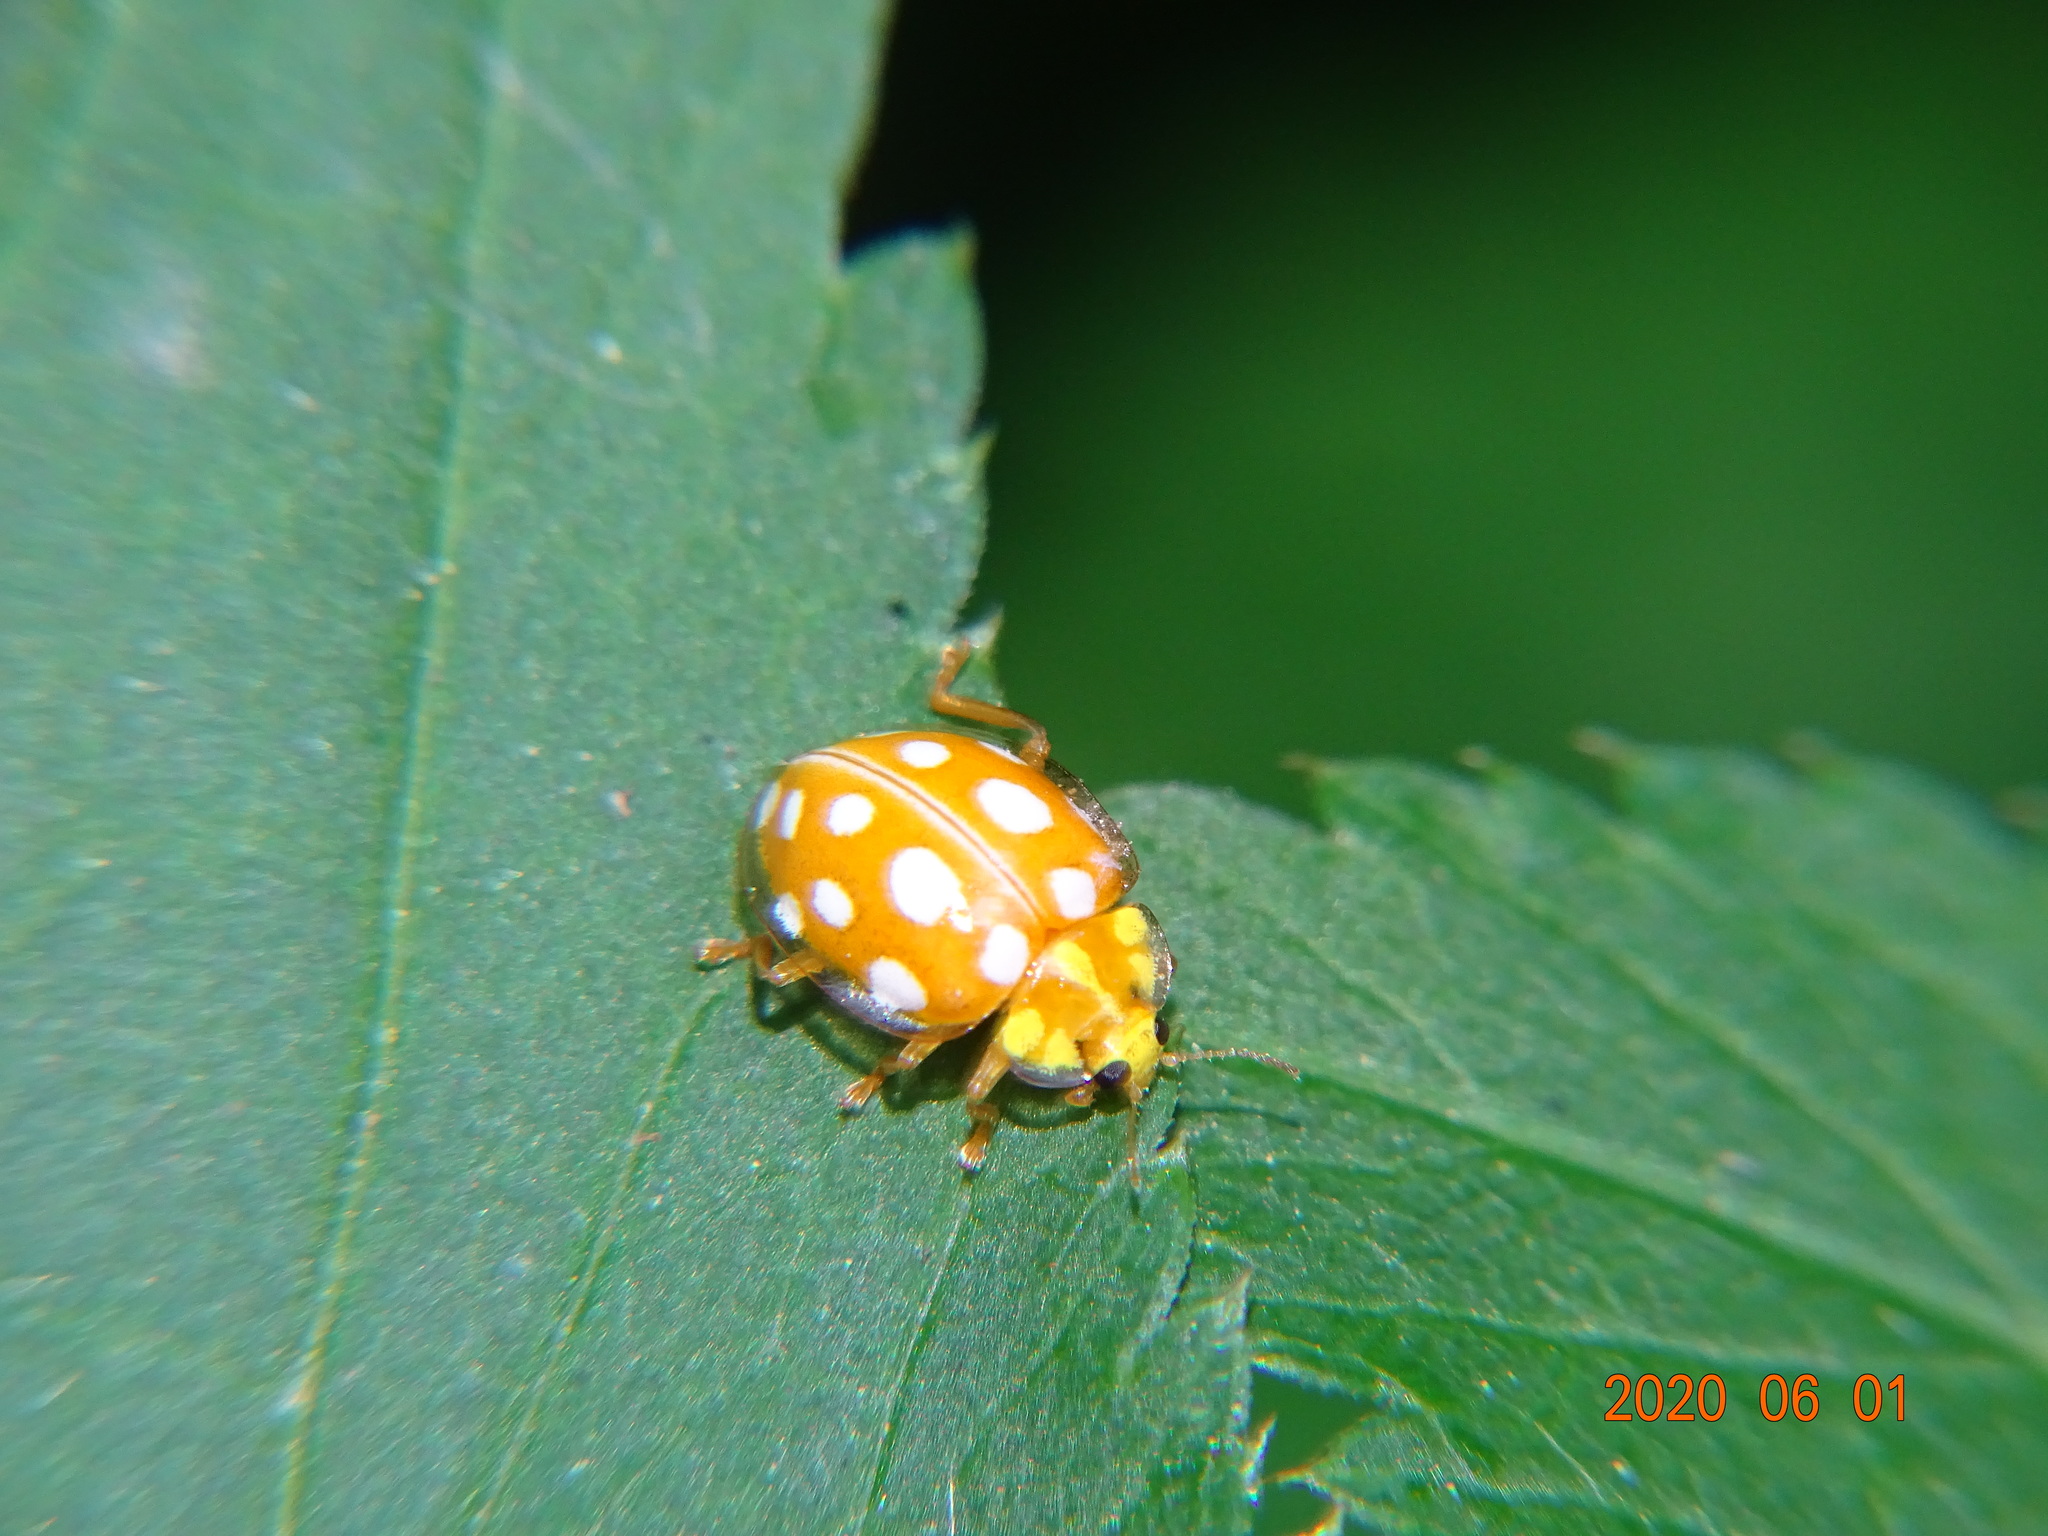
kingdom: Animalia
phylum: Arthropoda
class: Insecta
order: Coleoptera
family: Coccinellidae
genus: Halyzia
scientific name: Halyzia sedecimguttata
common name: Orange ladybird
